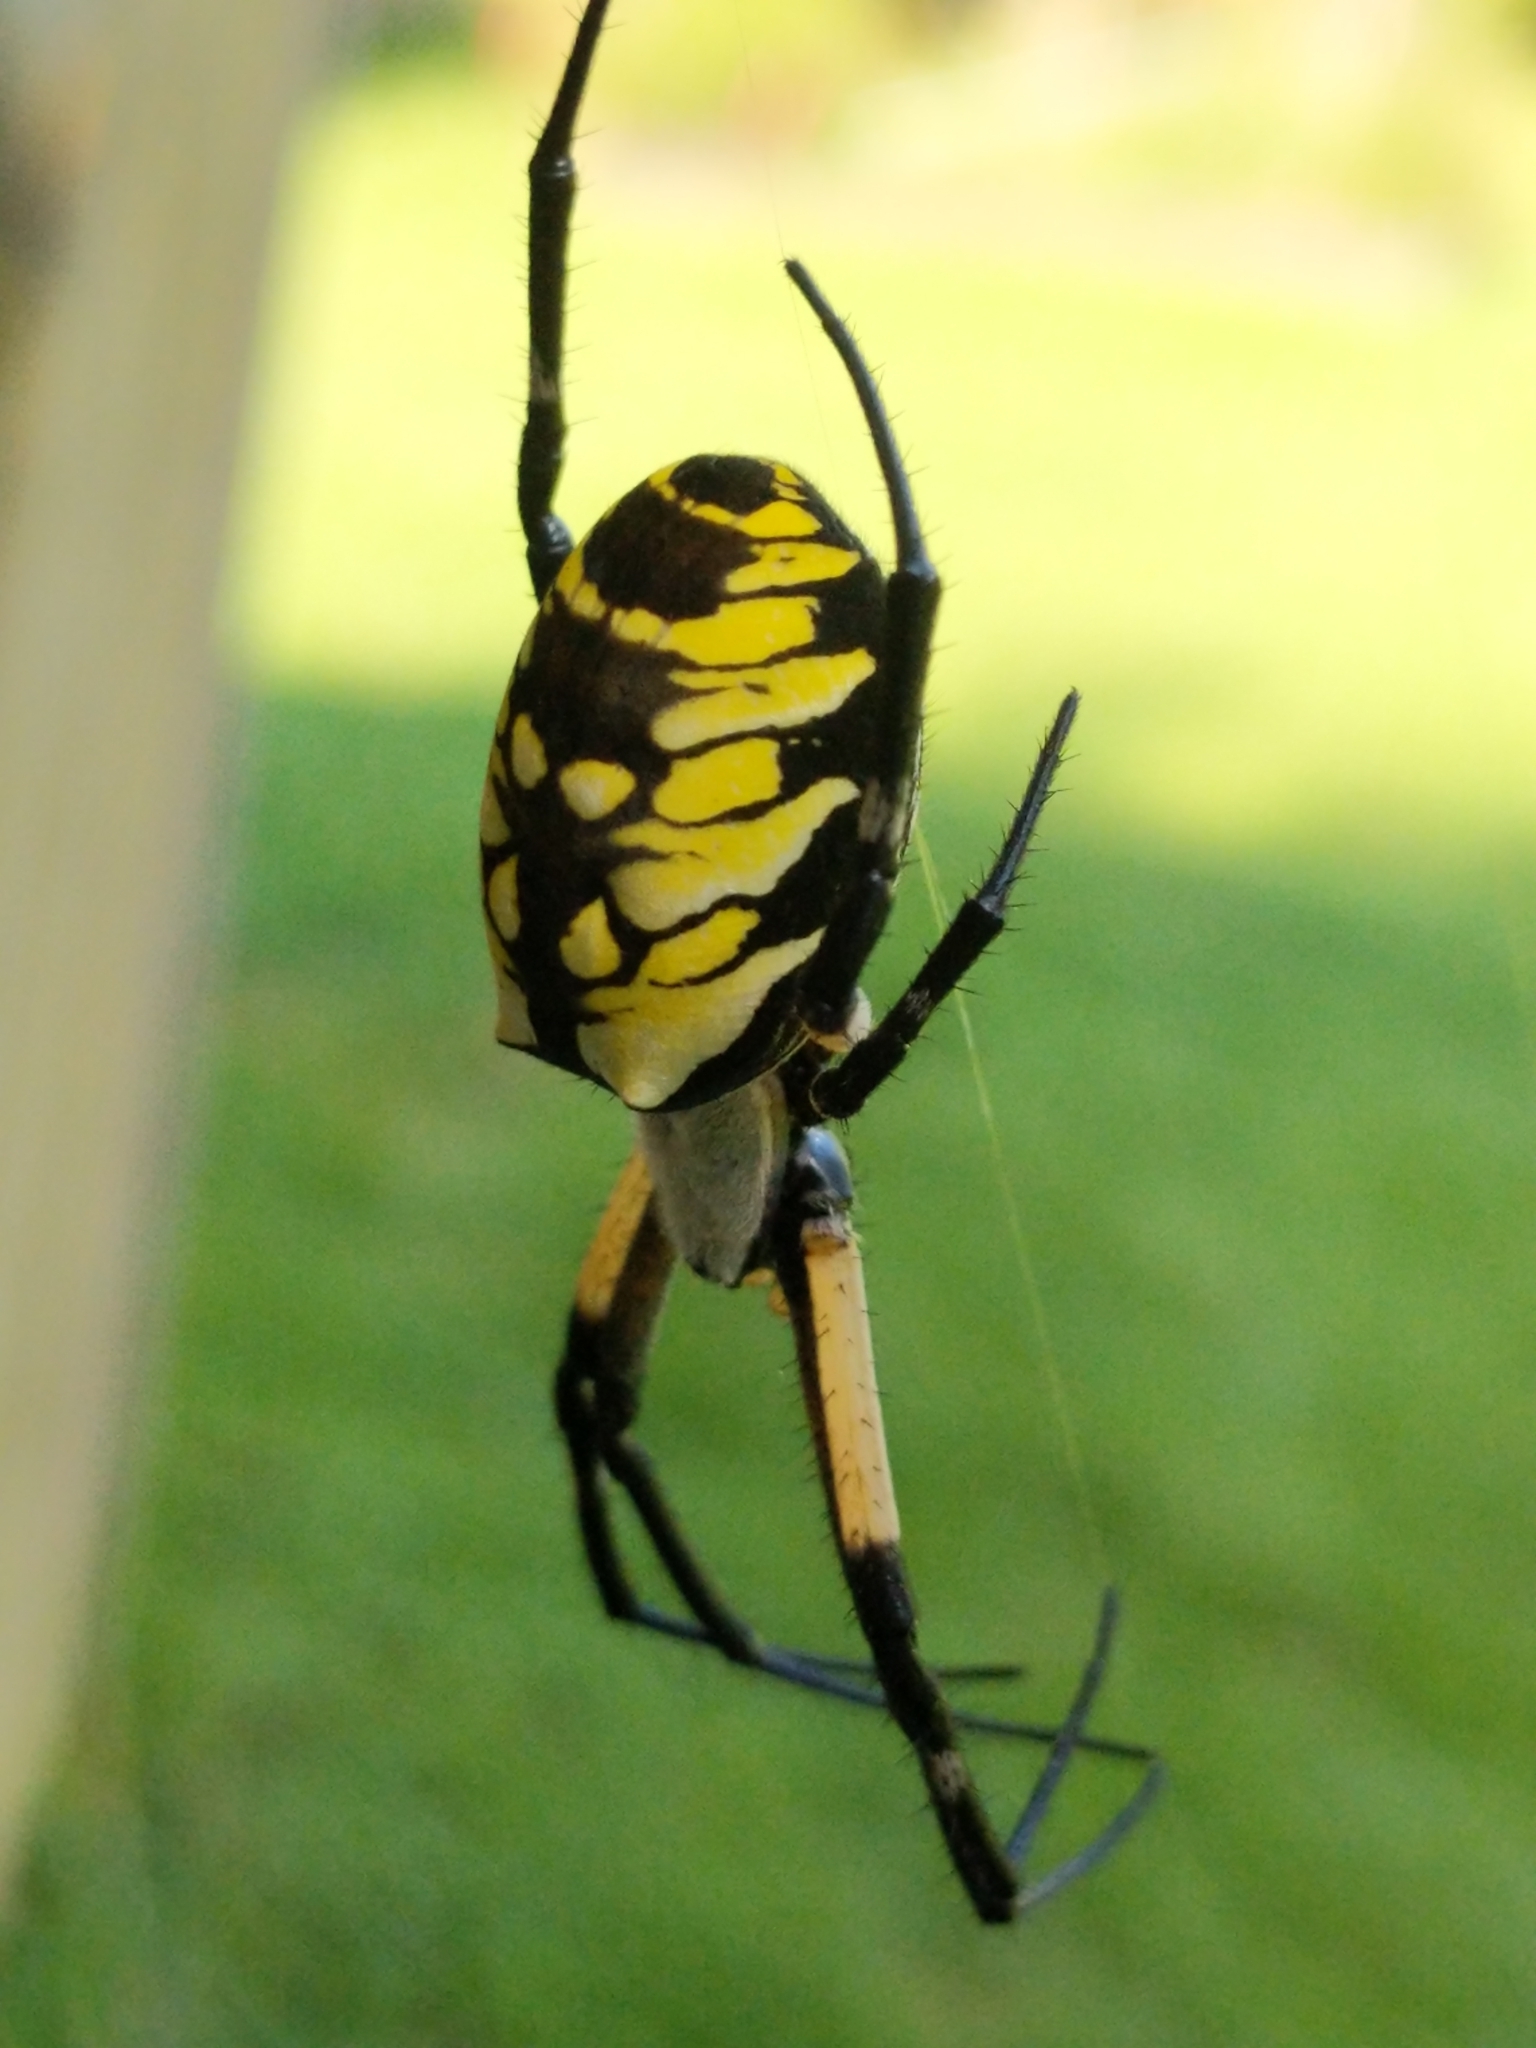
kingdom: Animalia
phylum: Arthropoda
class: Arachnida
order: Araneae
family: Araneidae
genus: Argiope
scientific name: Argiope aurantia
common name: Orb weavers
